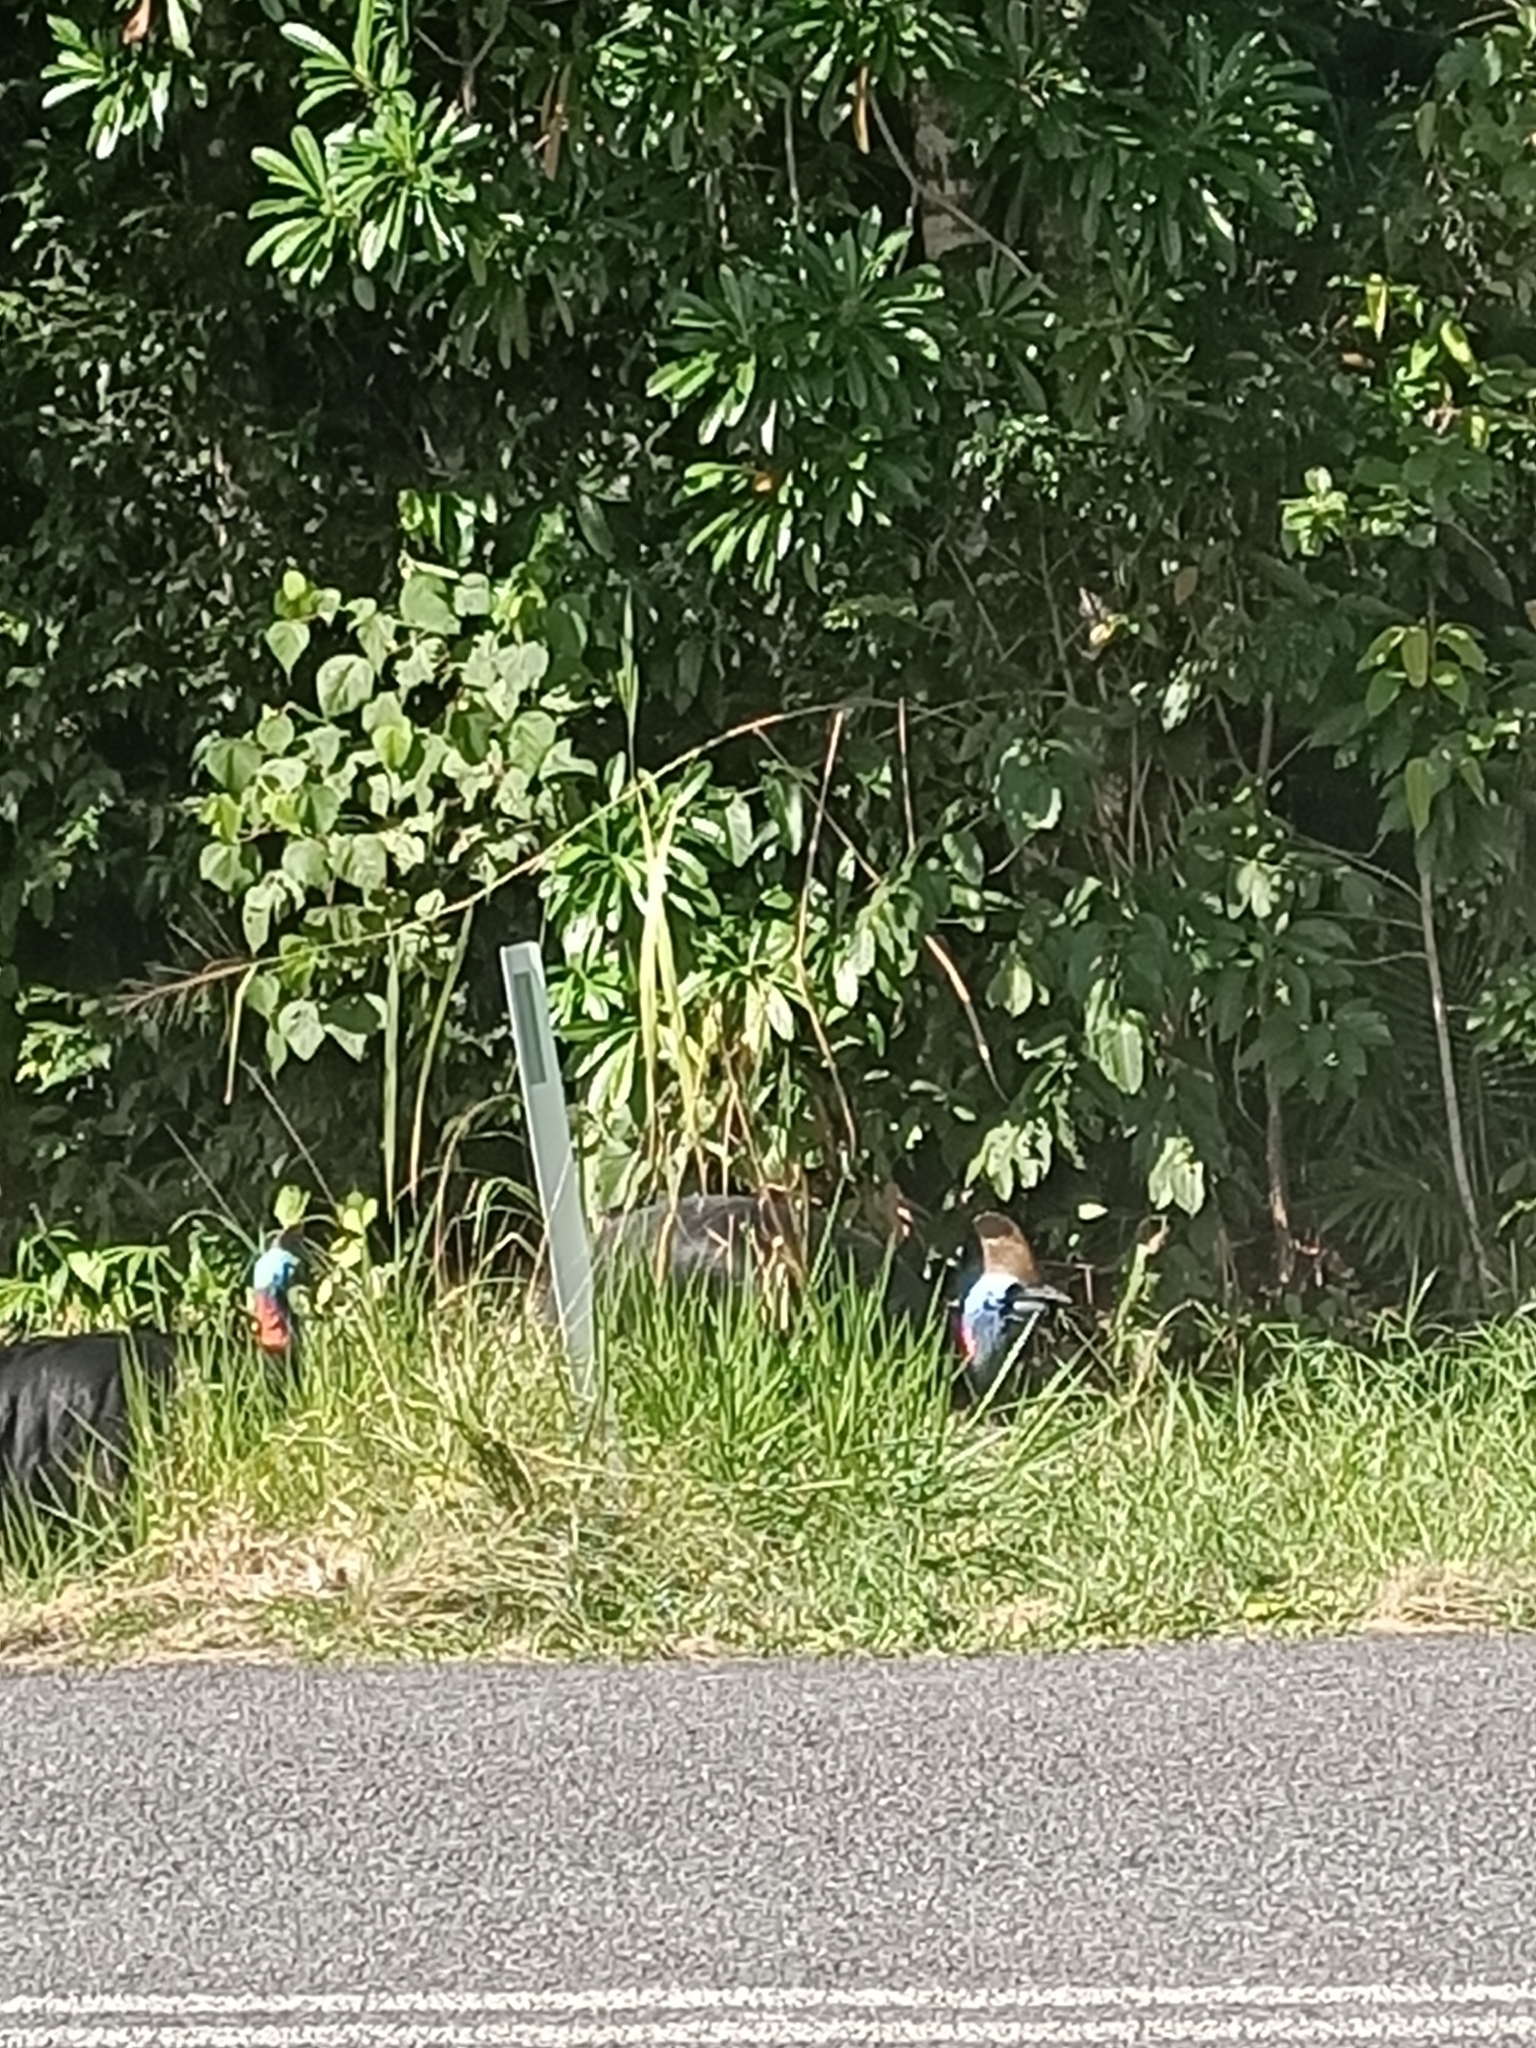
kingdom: Animalia
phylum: Chordata
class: Aves
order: Casuariiformes
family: Casuariidae
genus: Casuarius
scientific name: Casuarius casuarius
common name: Southern cassowary
